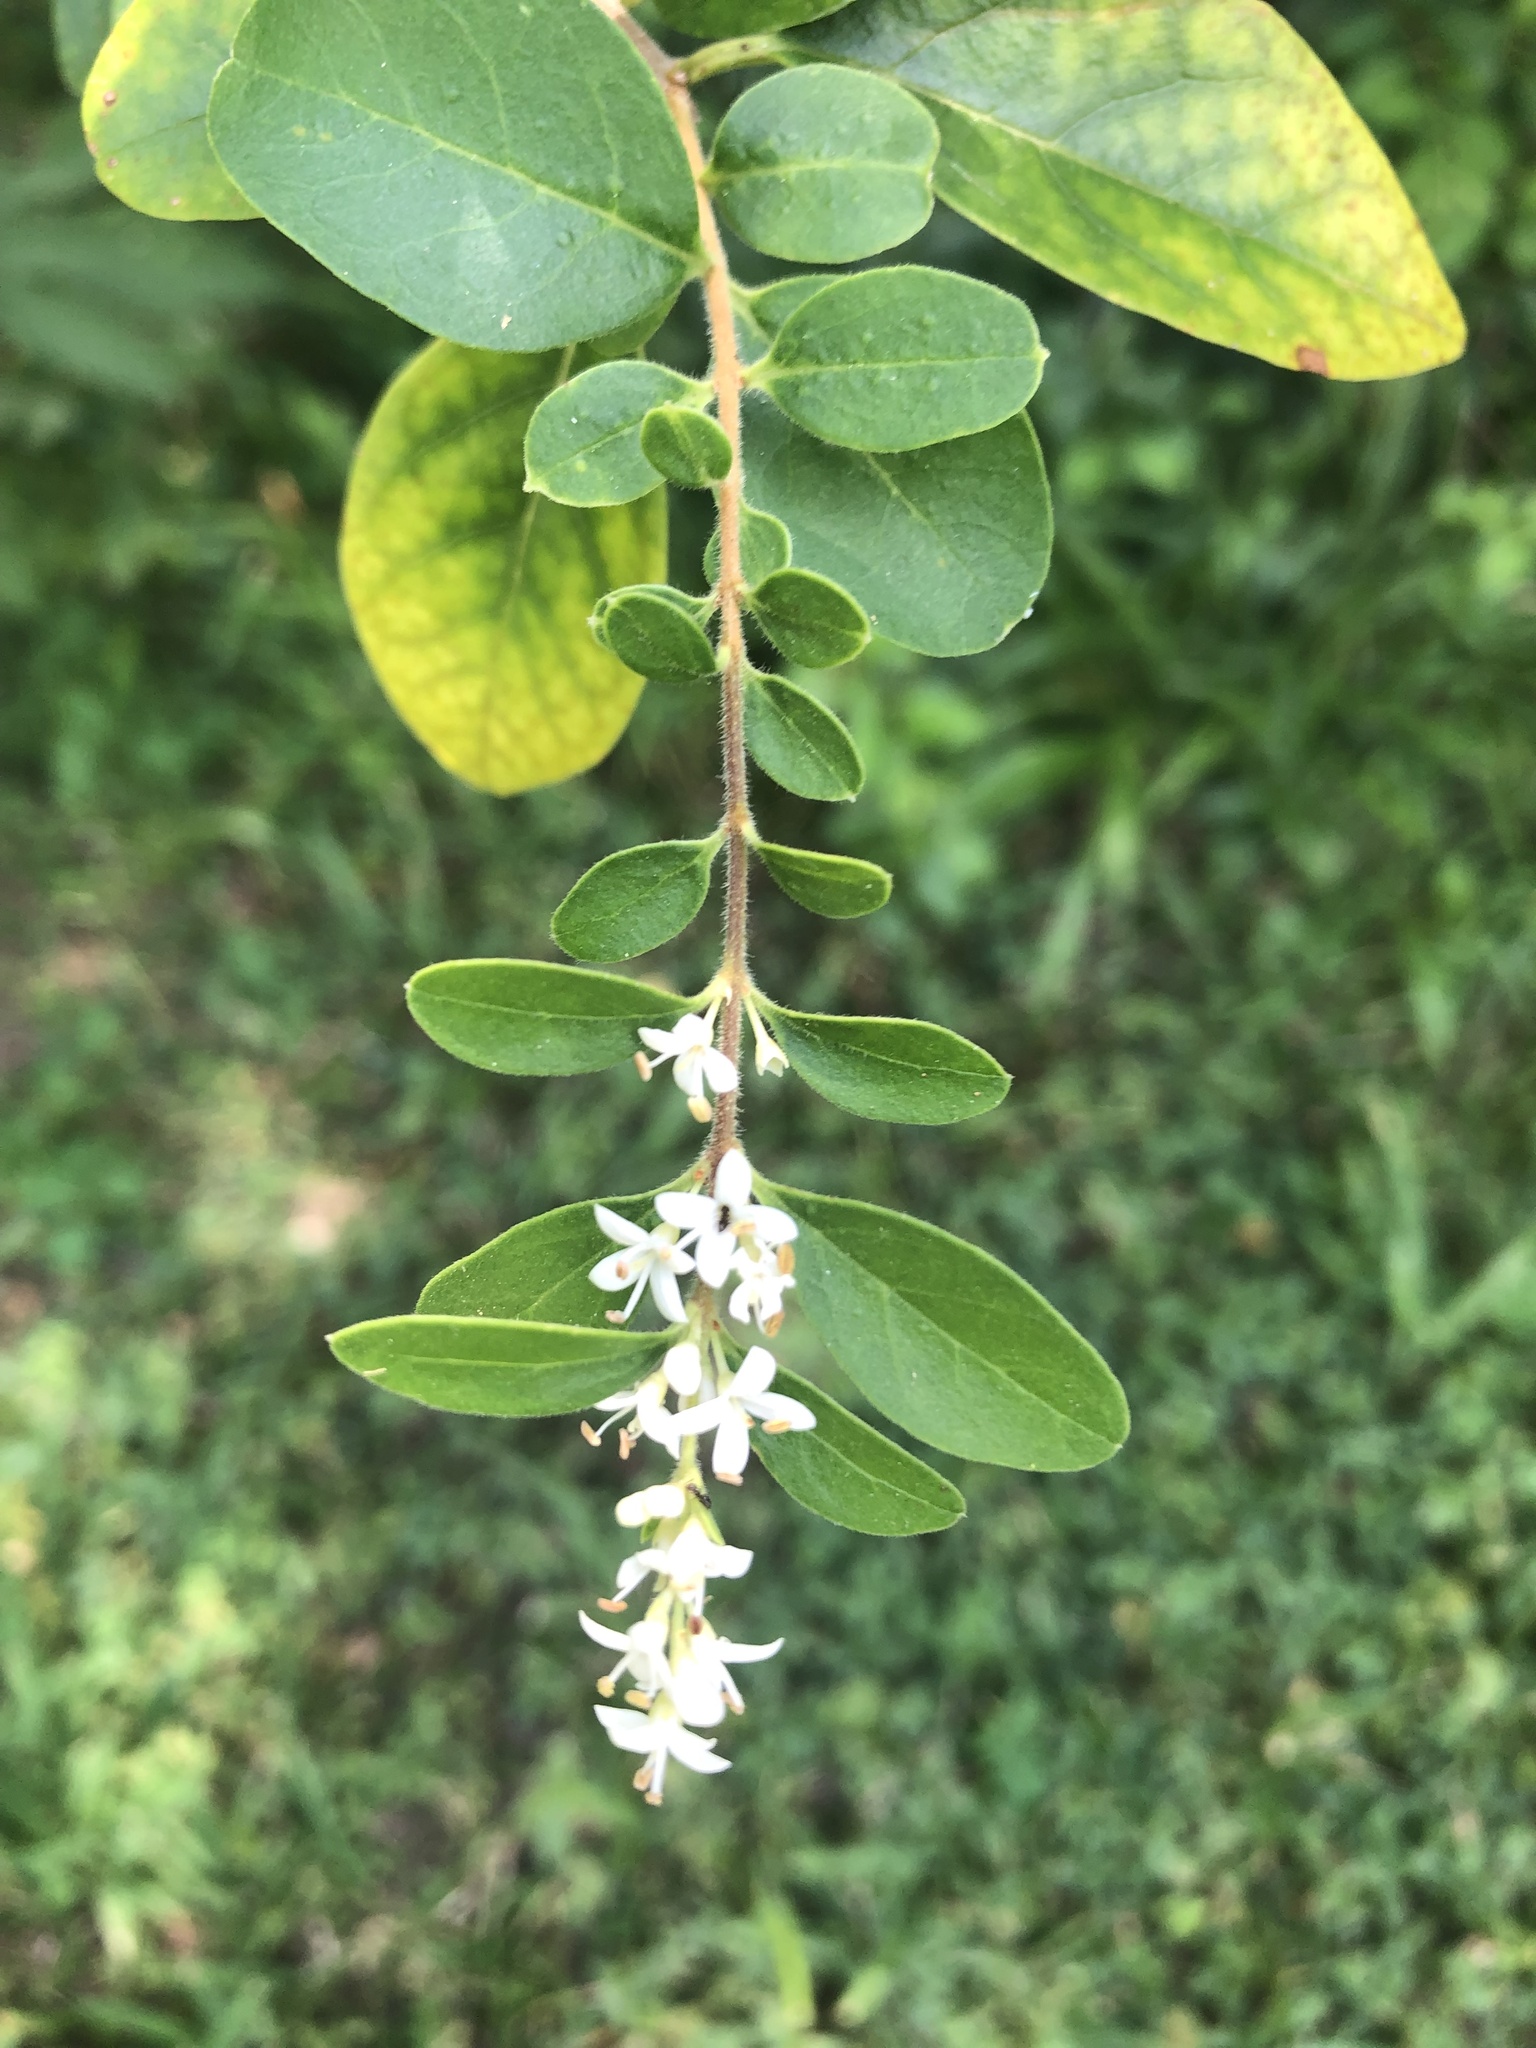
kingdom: Plantae
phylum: Tracheophyta
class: Magnoliopsida
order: Lamiales
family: Oleaceae
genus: Ligustrum
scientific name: Ligustrum sinense
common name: Chinese privet
